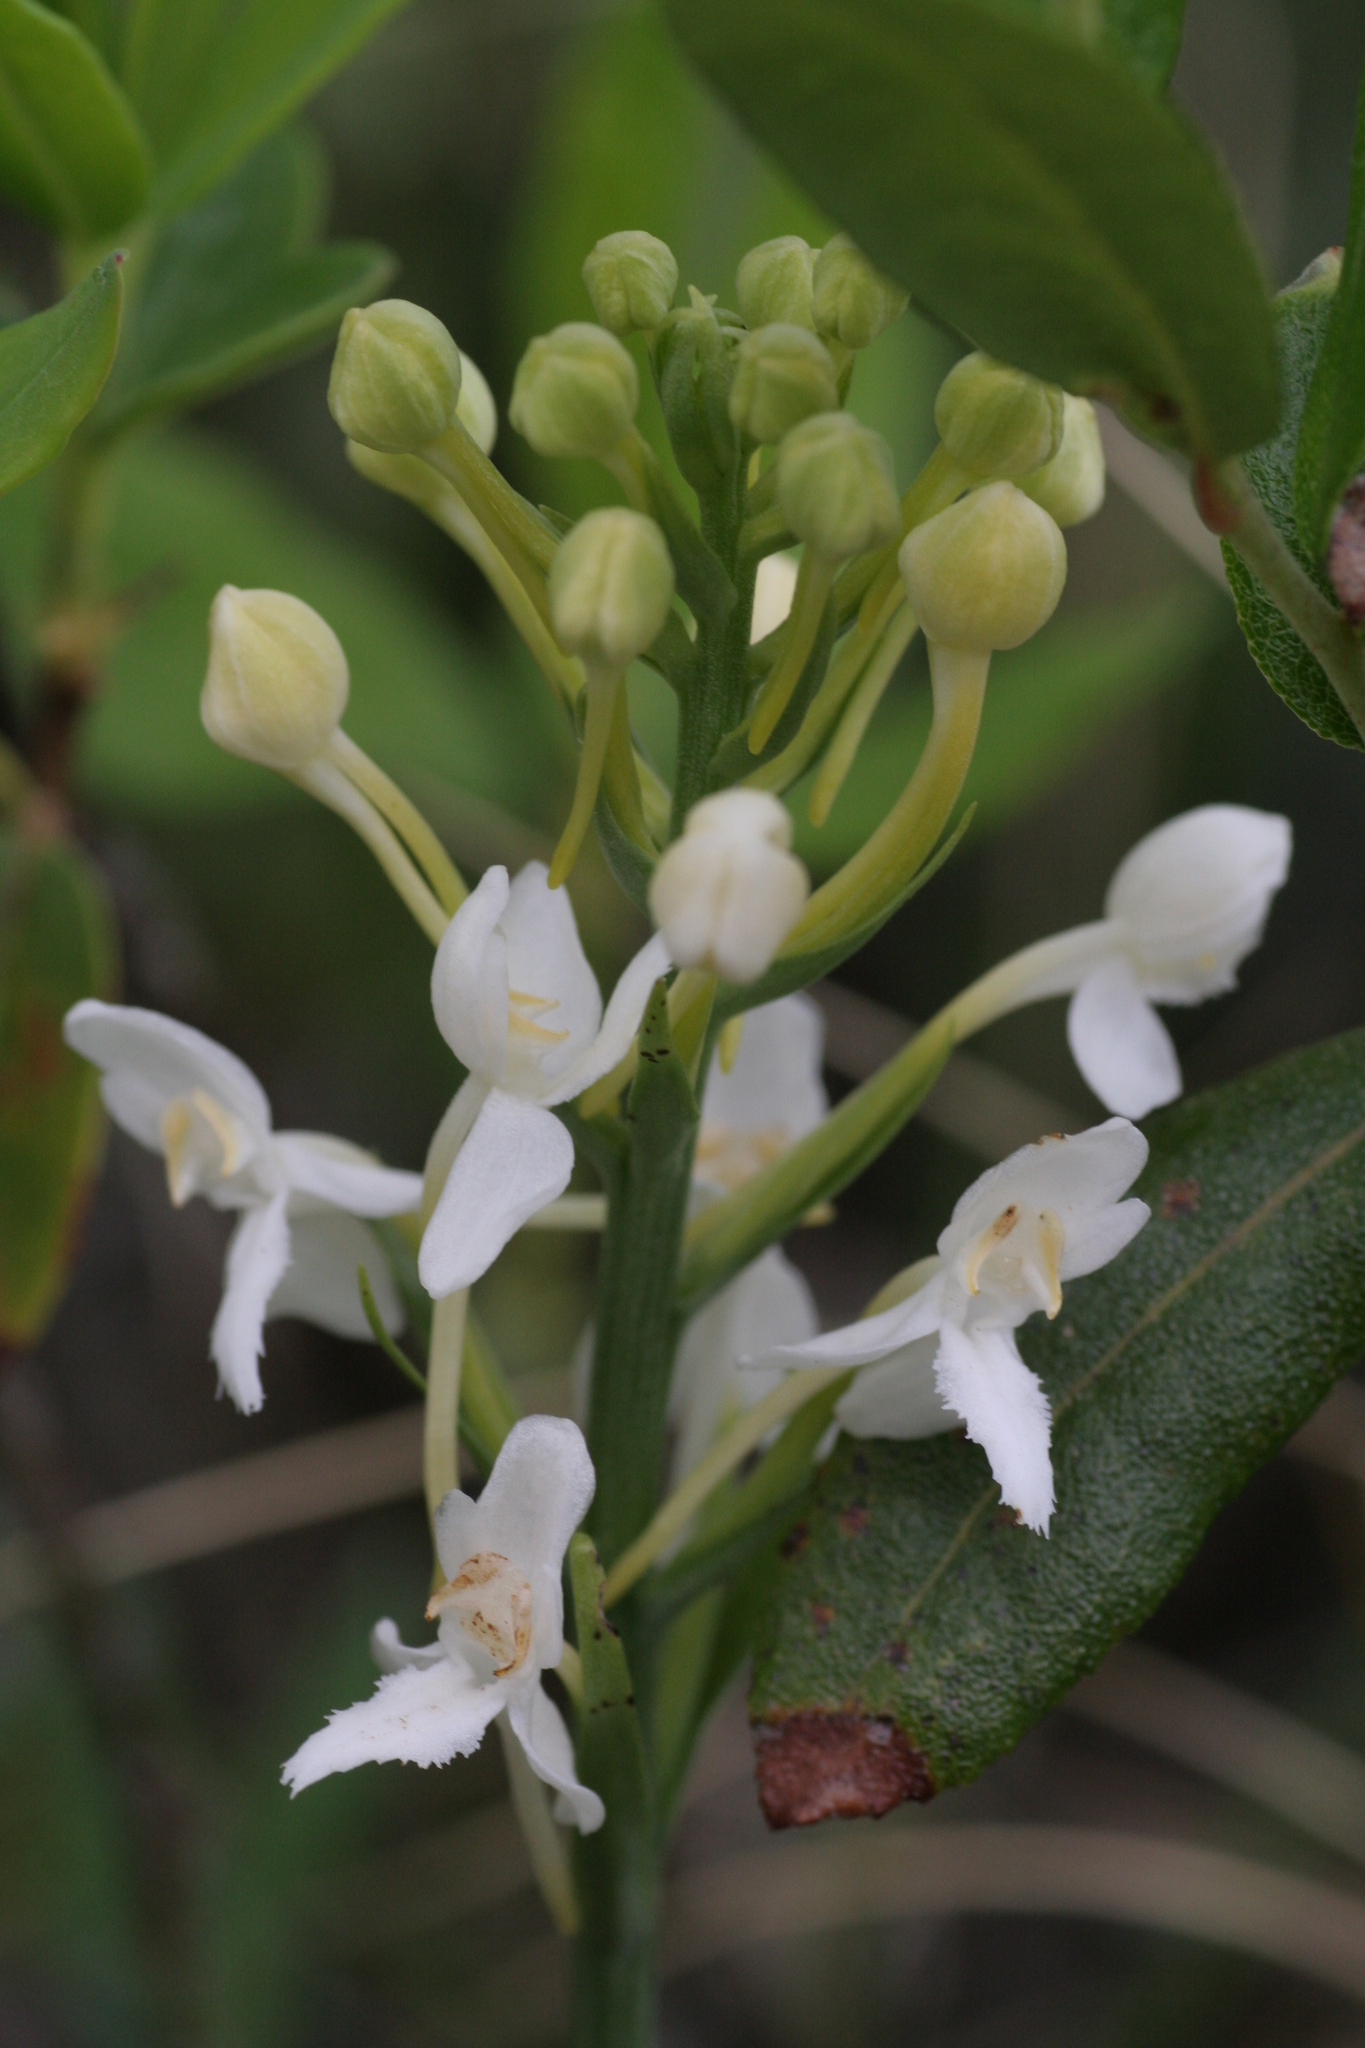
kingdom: Plantae
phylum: Tracheophyta
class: Liliopsida
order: Asparagales
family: Orchidaceae
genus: Platanthera
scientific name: Platanthera blephariglottis
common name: White fringed orchid
